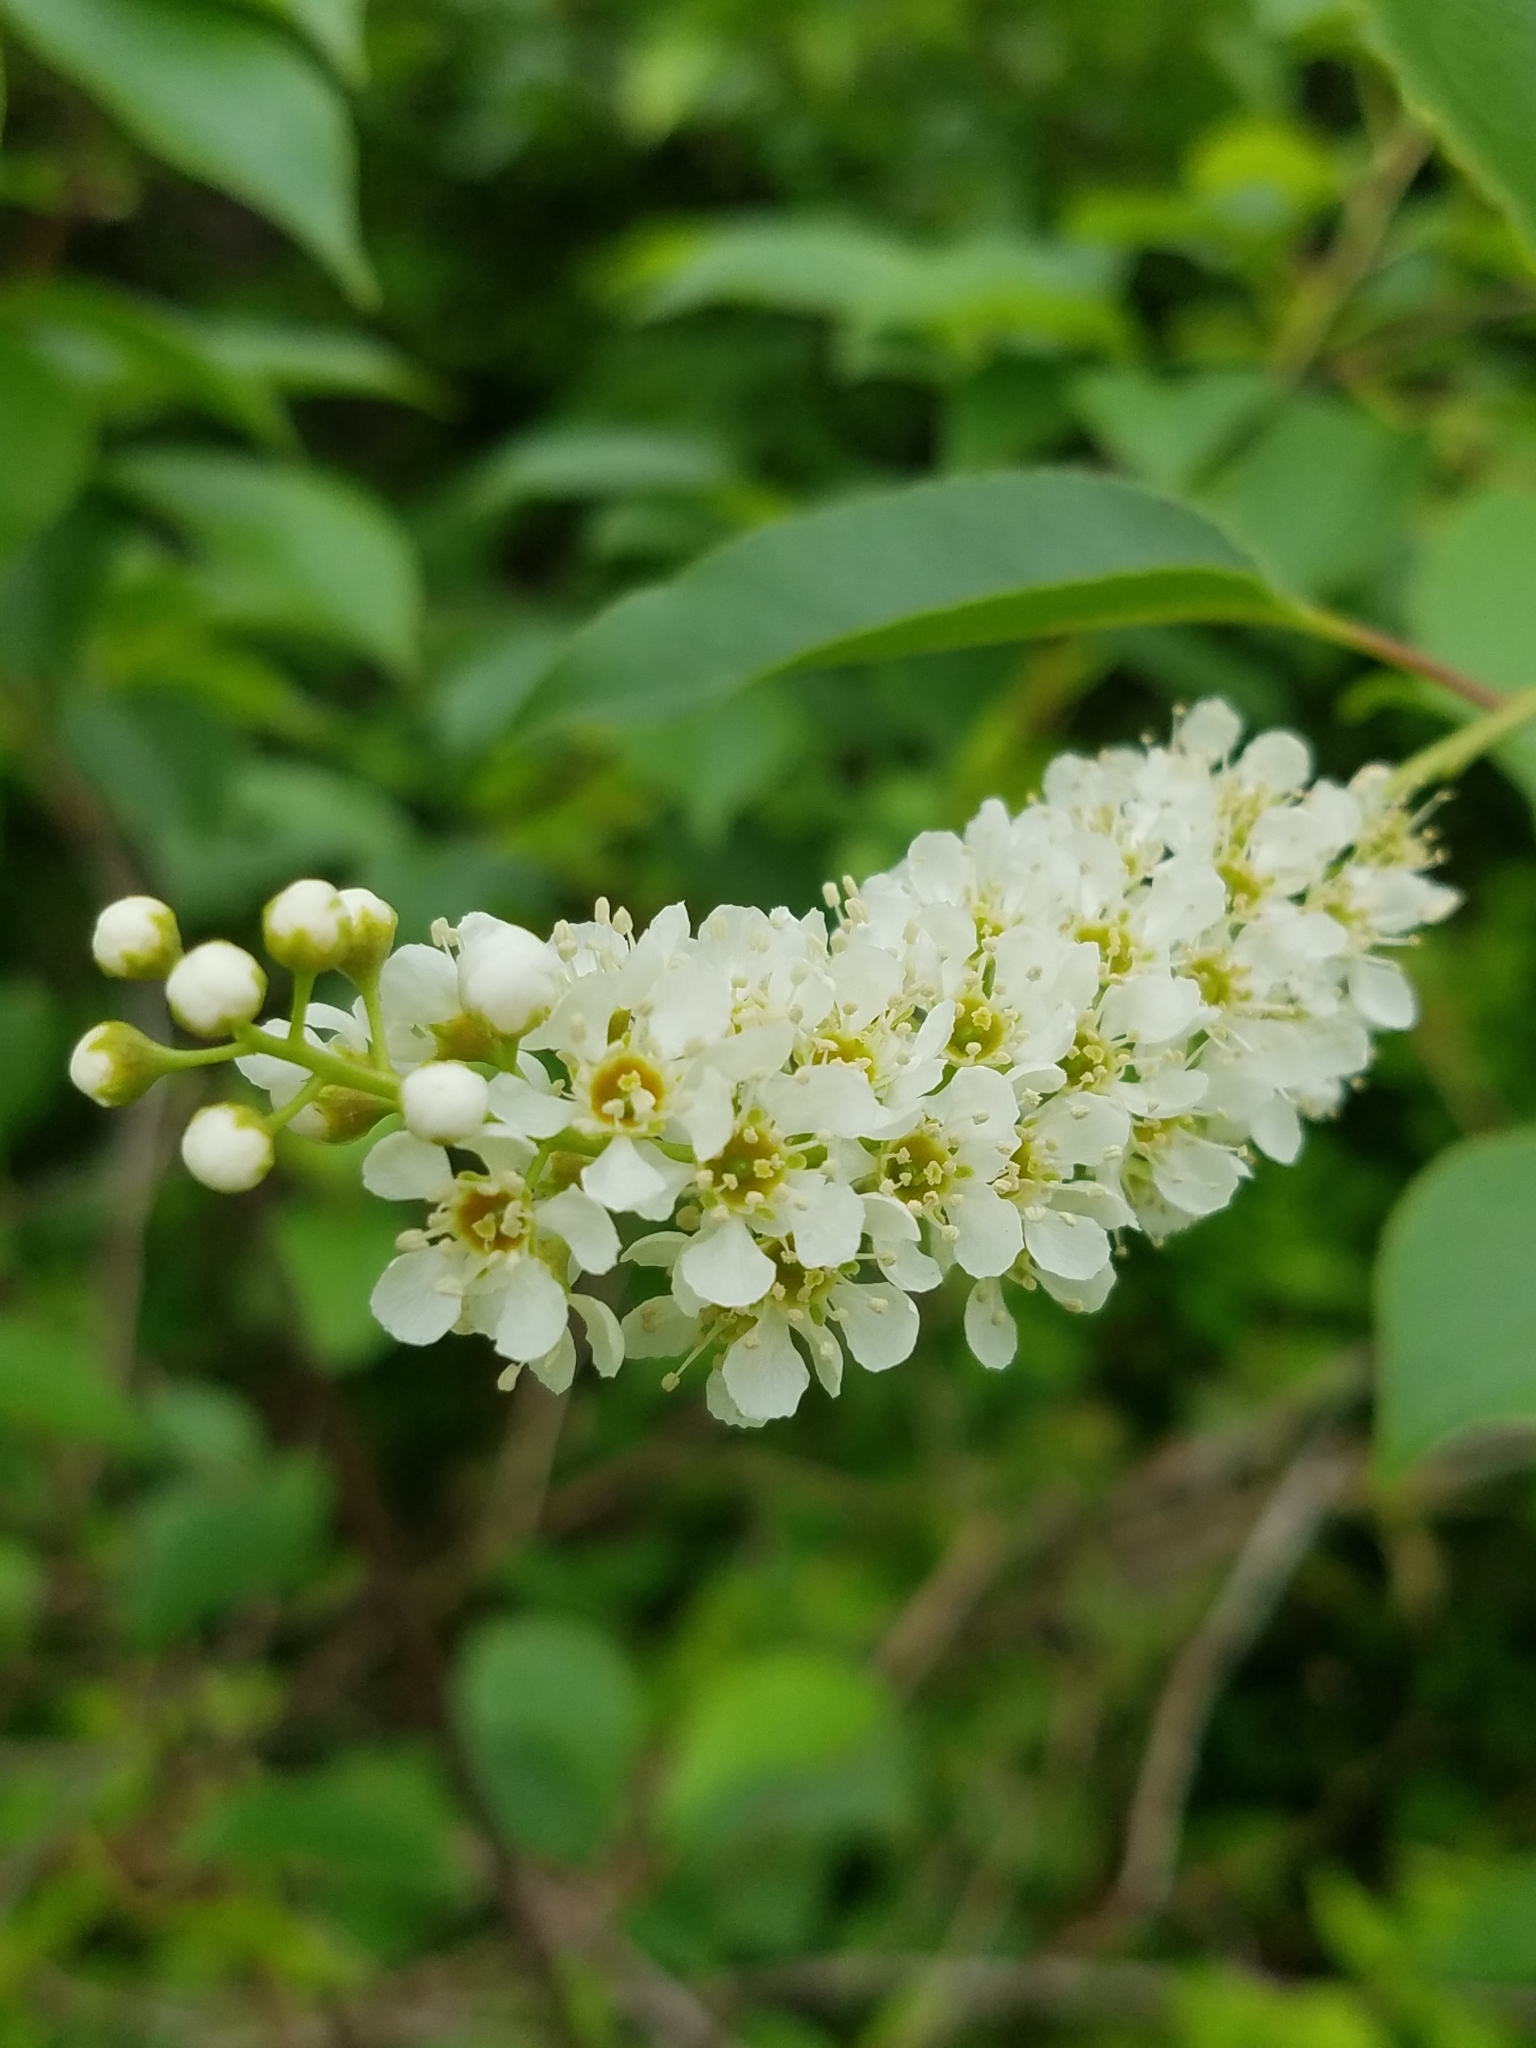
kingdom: Plantae
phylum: Tracheophyta
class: Magnoliopsida
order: Rosales
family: Rosaceae
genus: Prunus
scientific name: Prunus serotina
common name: Black cherry
